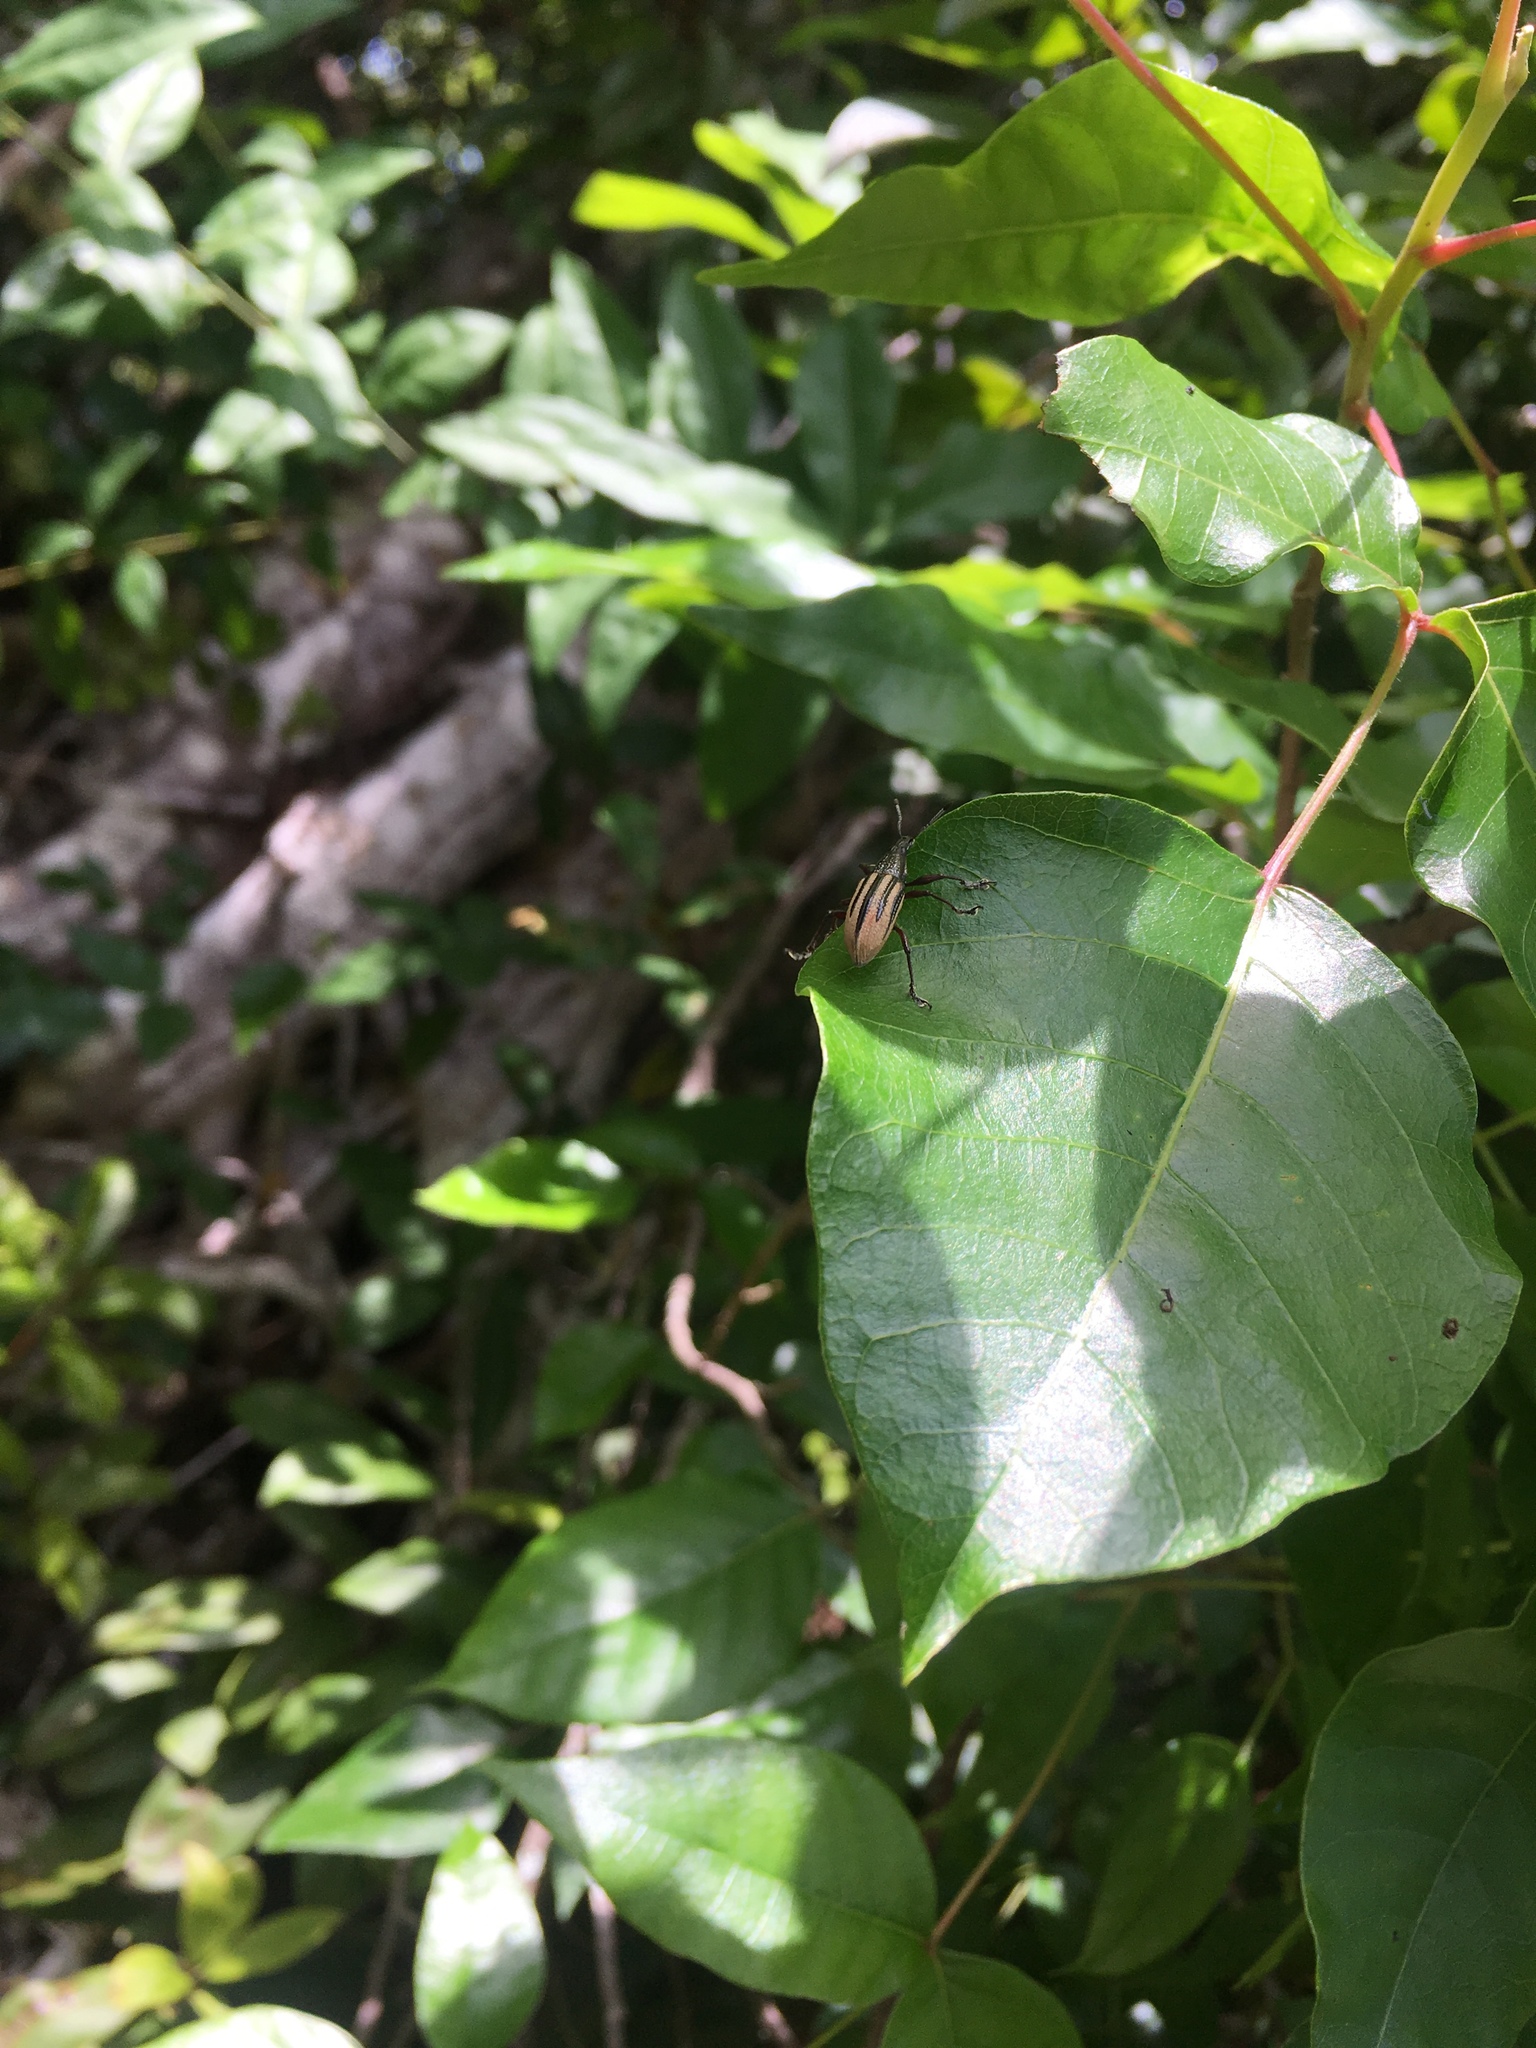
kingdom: Animalia
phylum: Arthropoda
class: Insecta
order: Coleoptera
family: Curculionidae
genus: Diaprepes
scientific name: Diaprepes abbreviatus
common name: Root weevil
